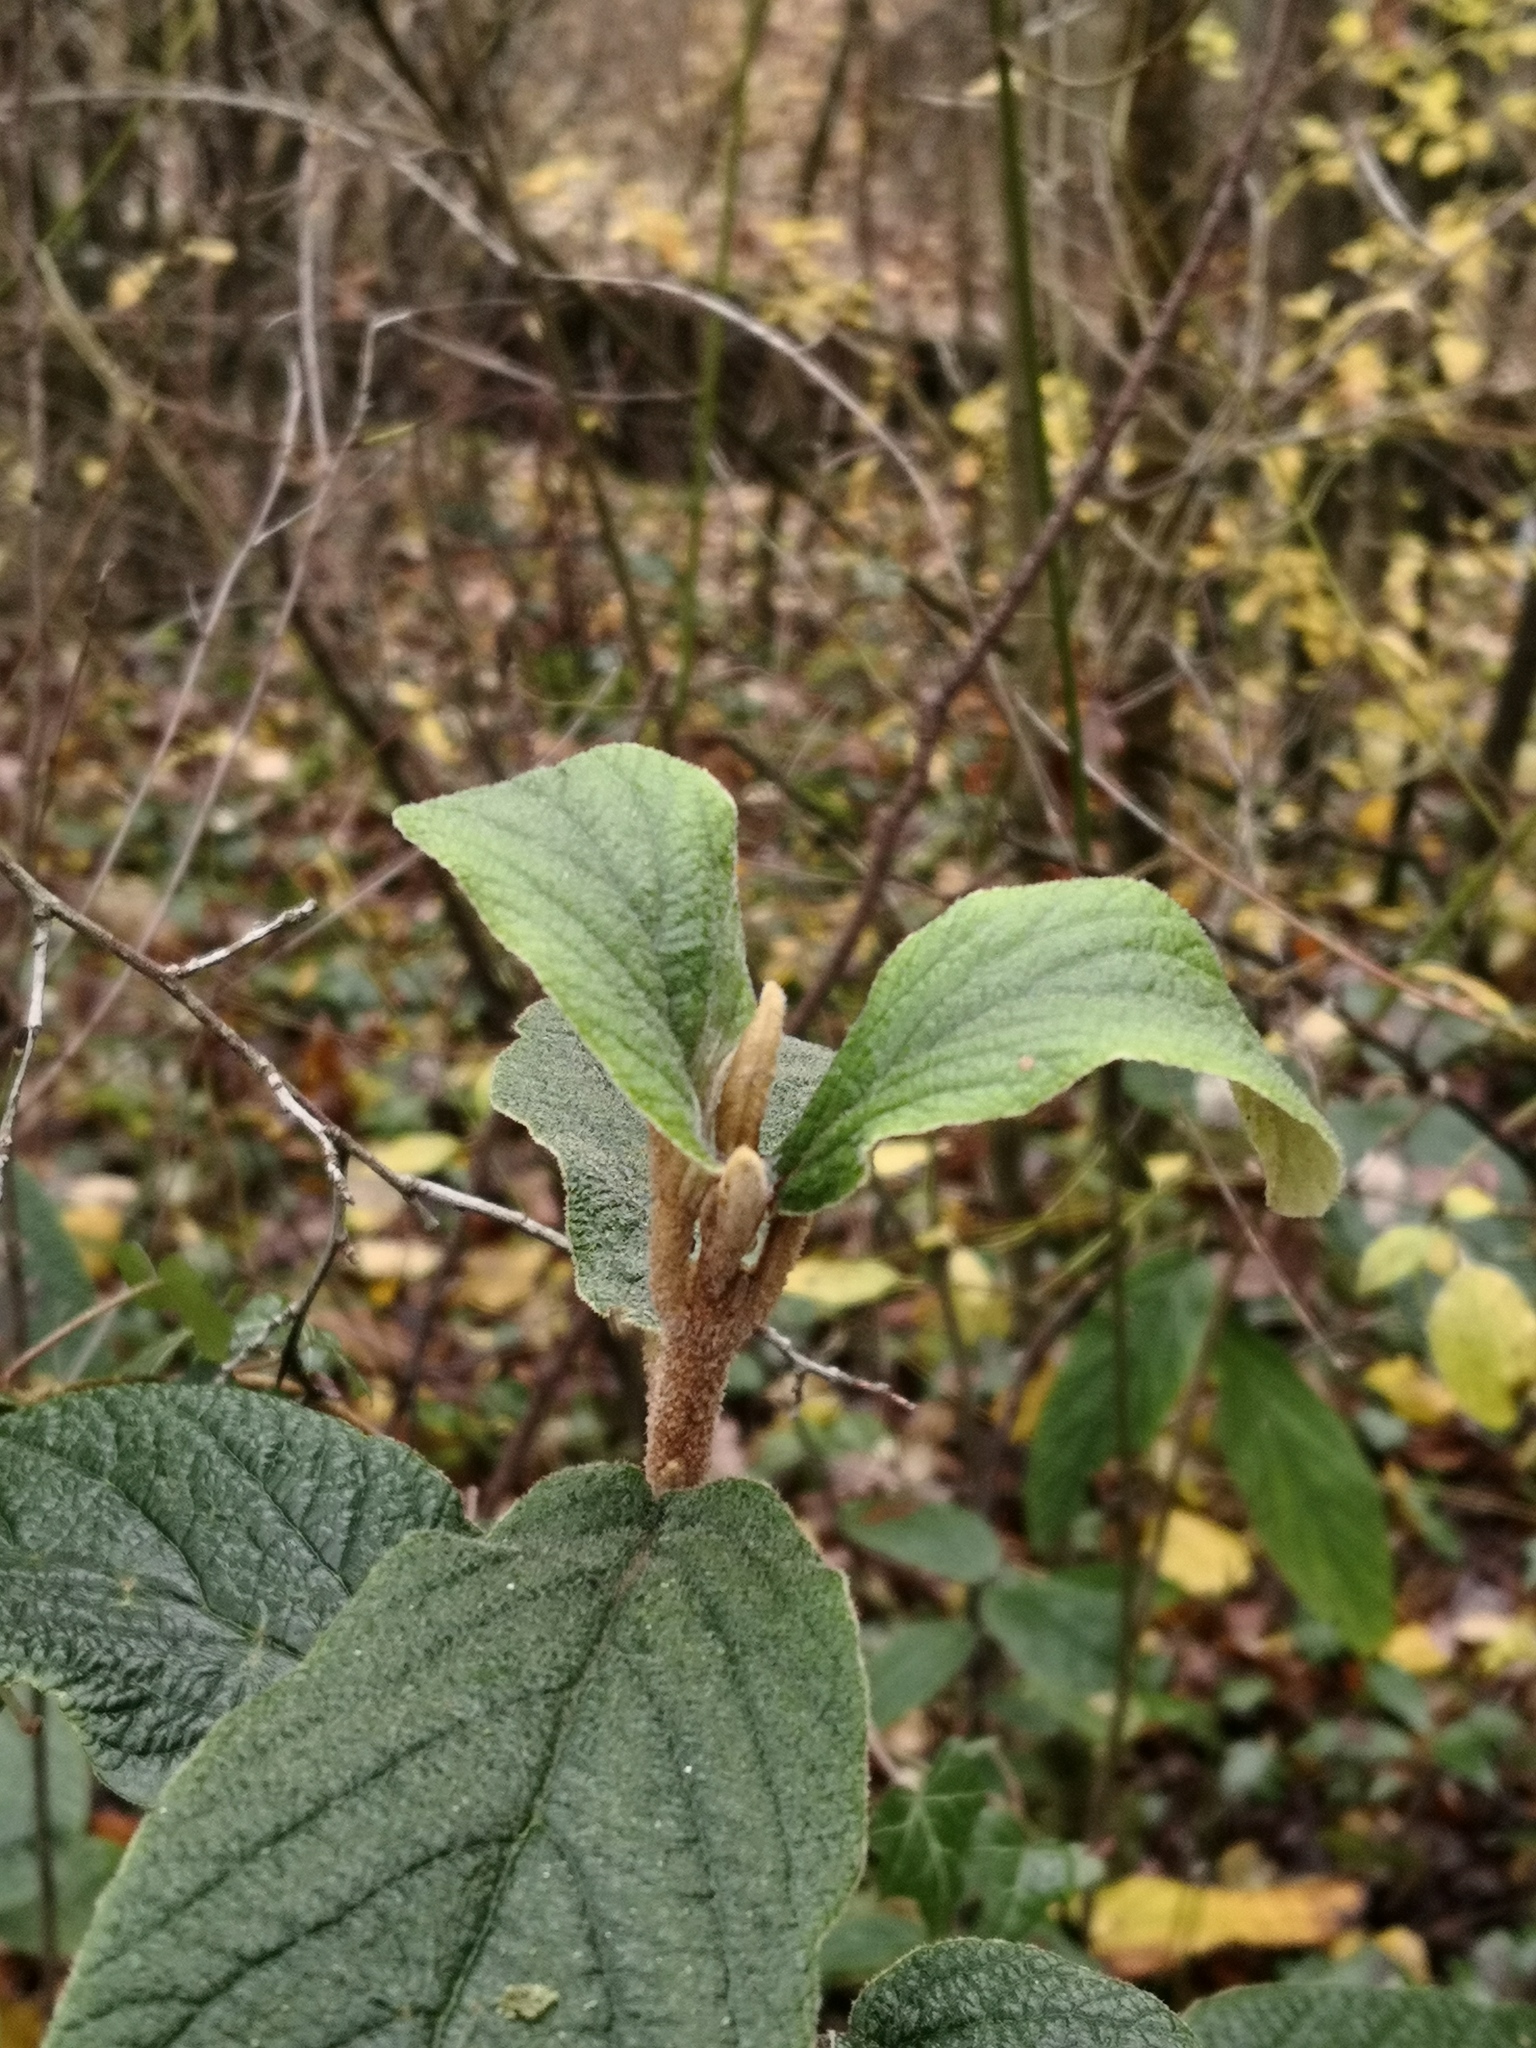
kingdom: Plantae
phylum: Tracheophyta
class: Magnoliopsida
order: Dipsacales
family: Viburnaceae
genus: Viburnum
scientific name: Viburnum rhytidophyllum
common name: Wrinkled viburnum
